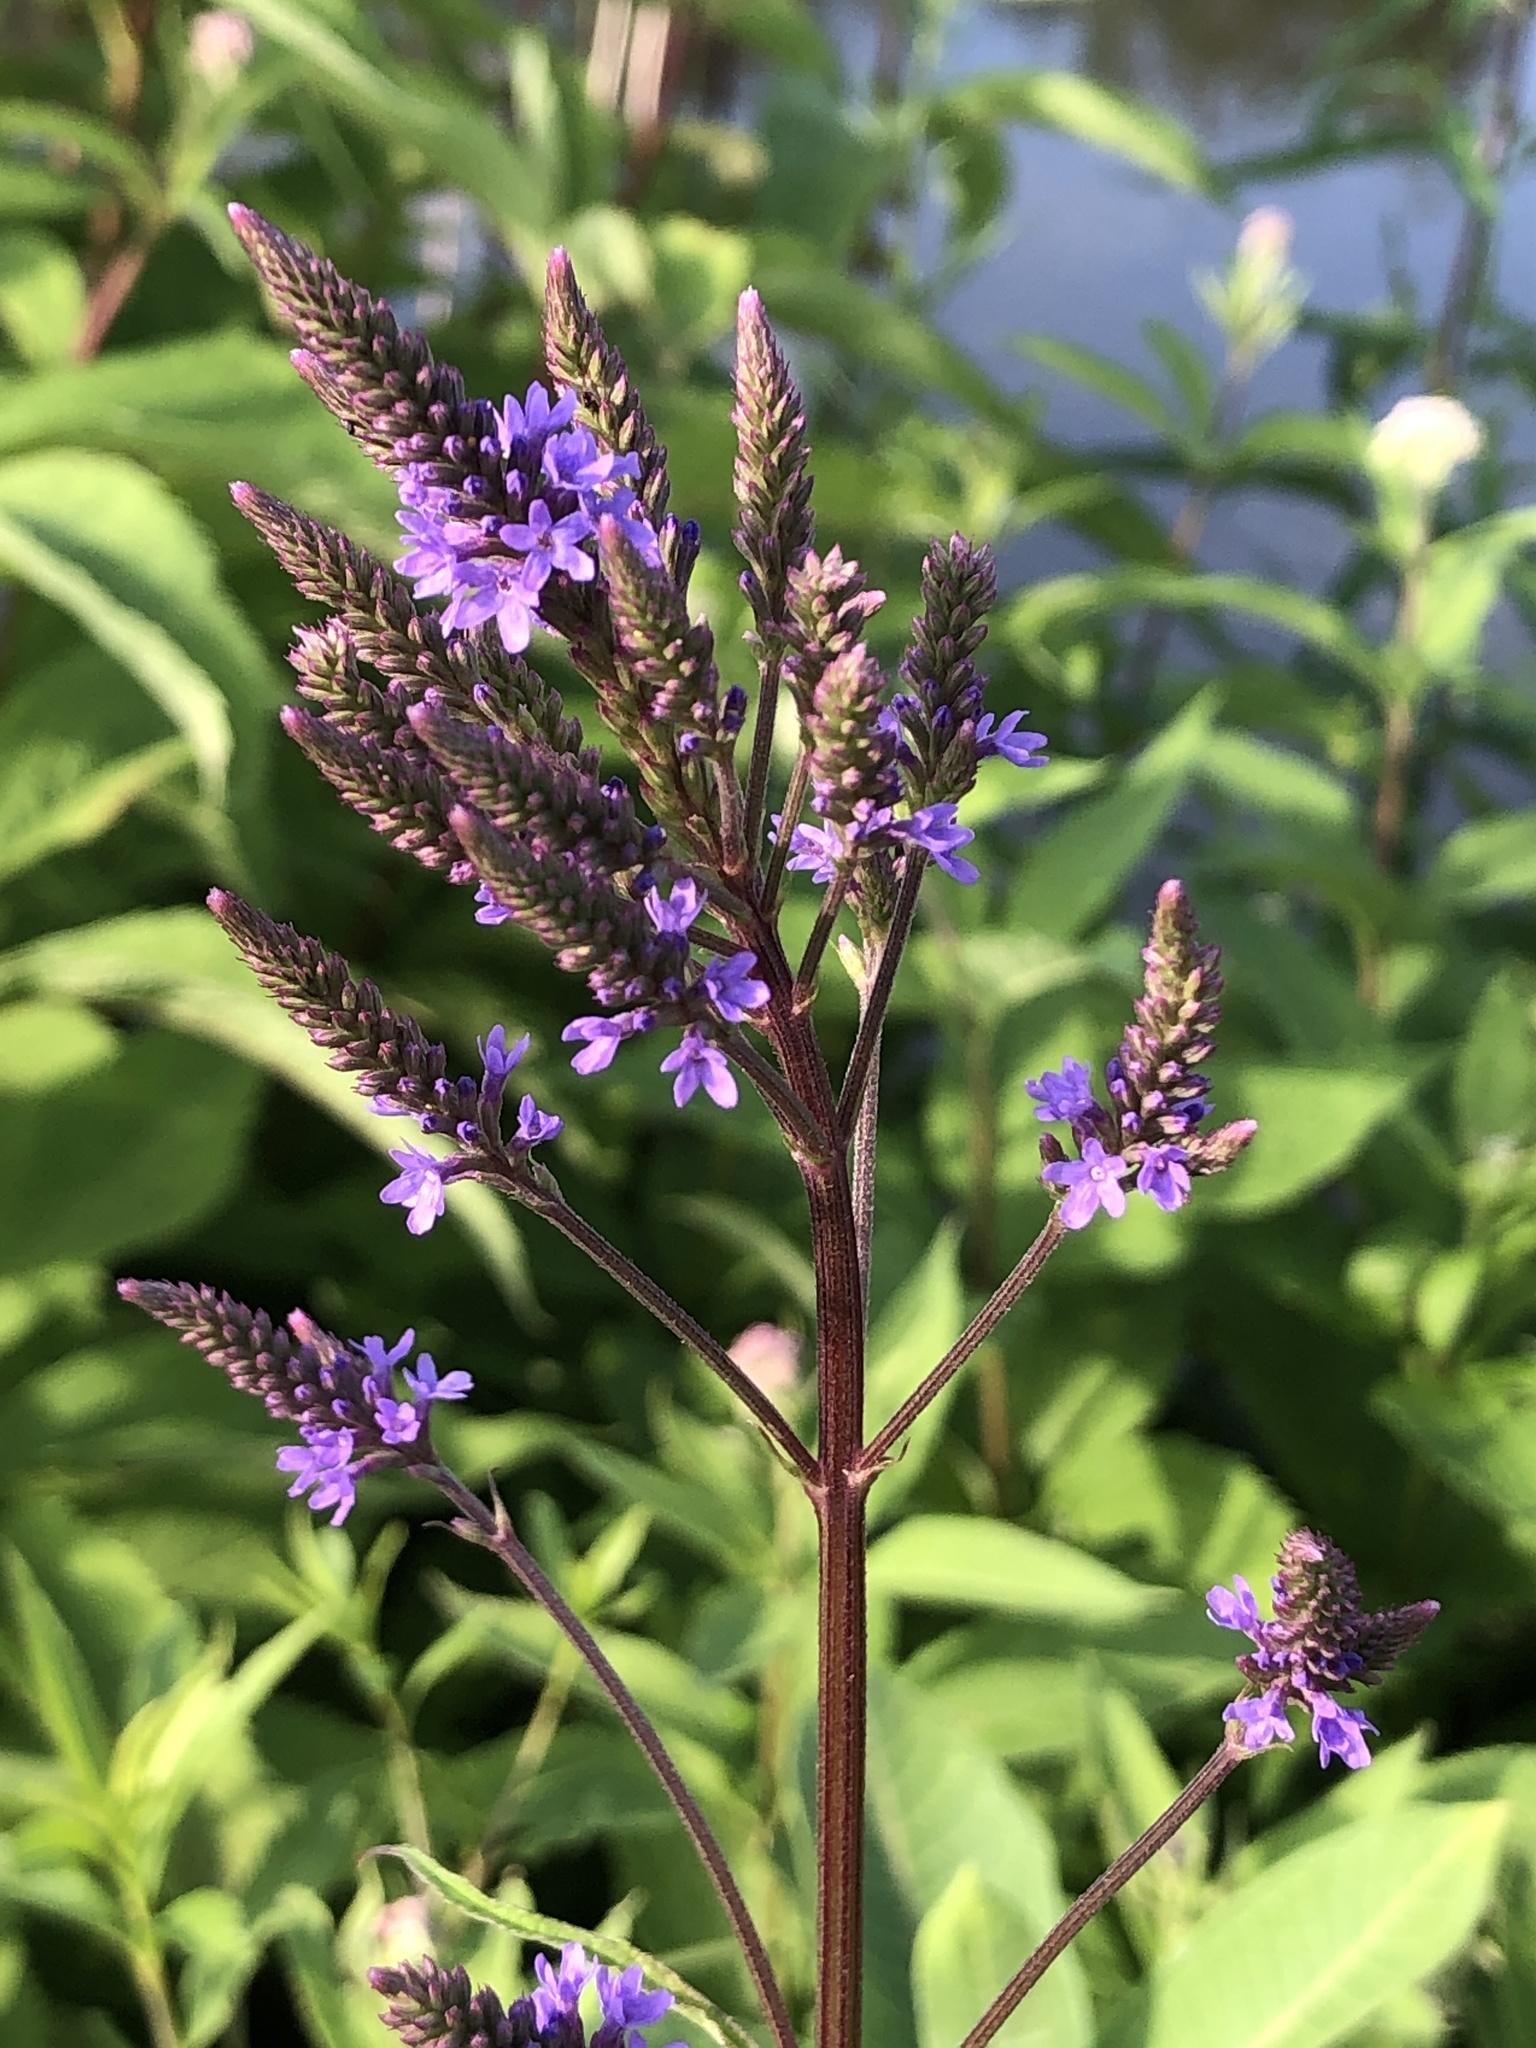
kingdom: Plantae
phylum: Tracheophyta
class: Magnoliopsida
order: Lamiales
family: Verbenaceae
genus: Verbena
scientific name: Verbena hastata
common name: American blue vervain
